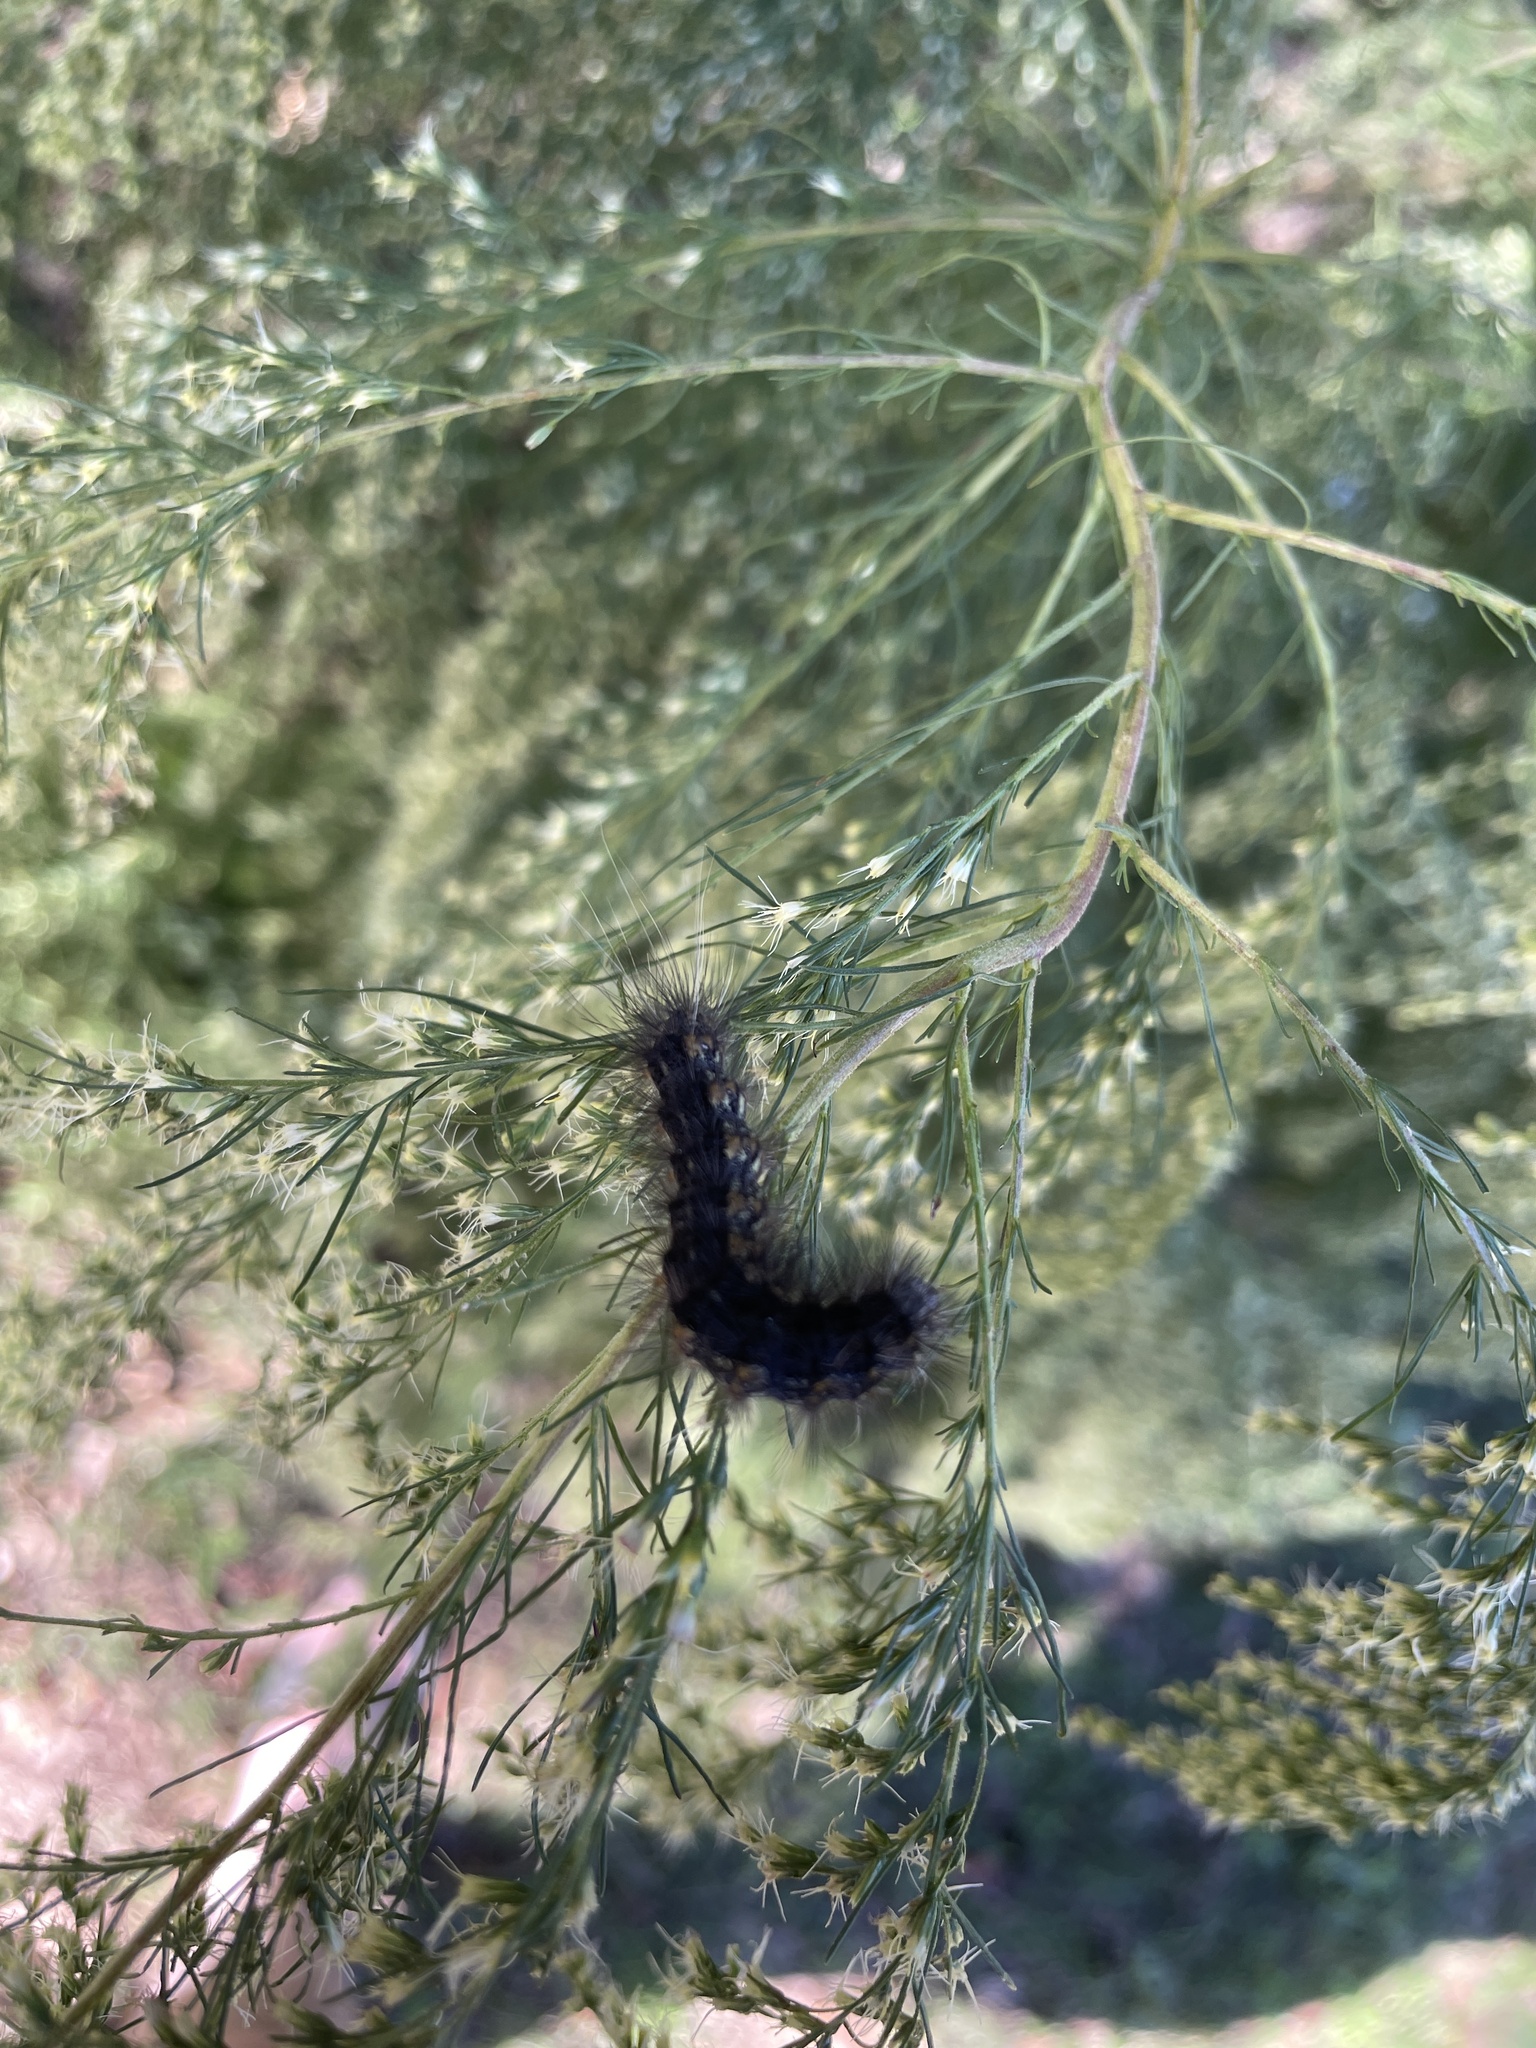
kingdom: Animalia
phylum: Arthropoda
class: Insecta
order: Lepidoptera
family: Erebidae
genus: Estigmene
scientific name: Estigmene acrea
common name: Salt marsh moth
